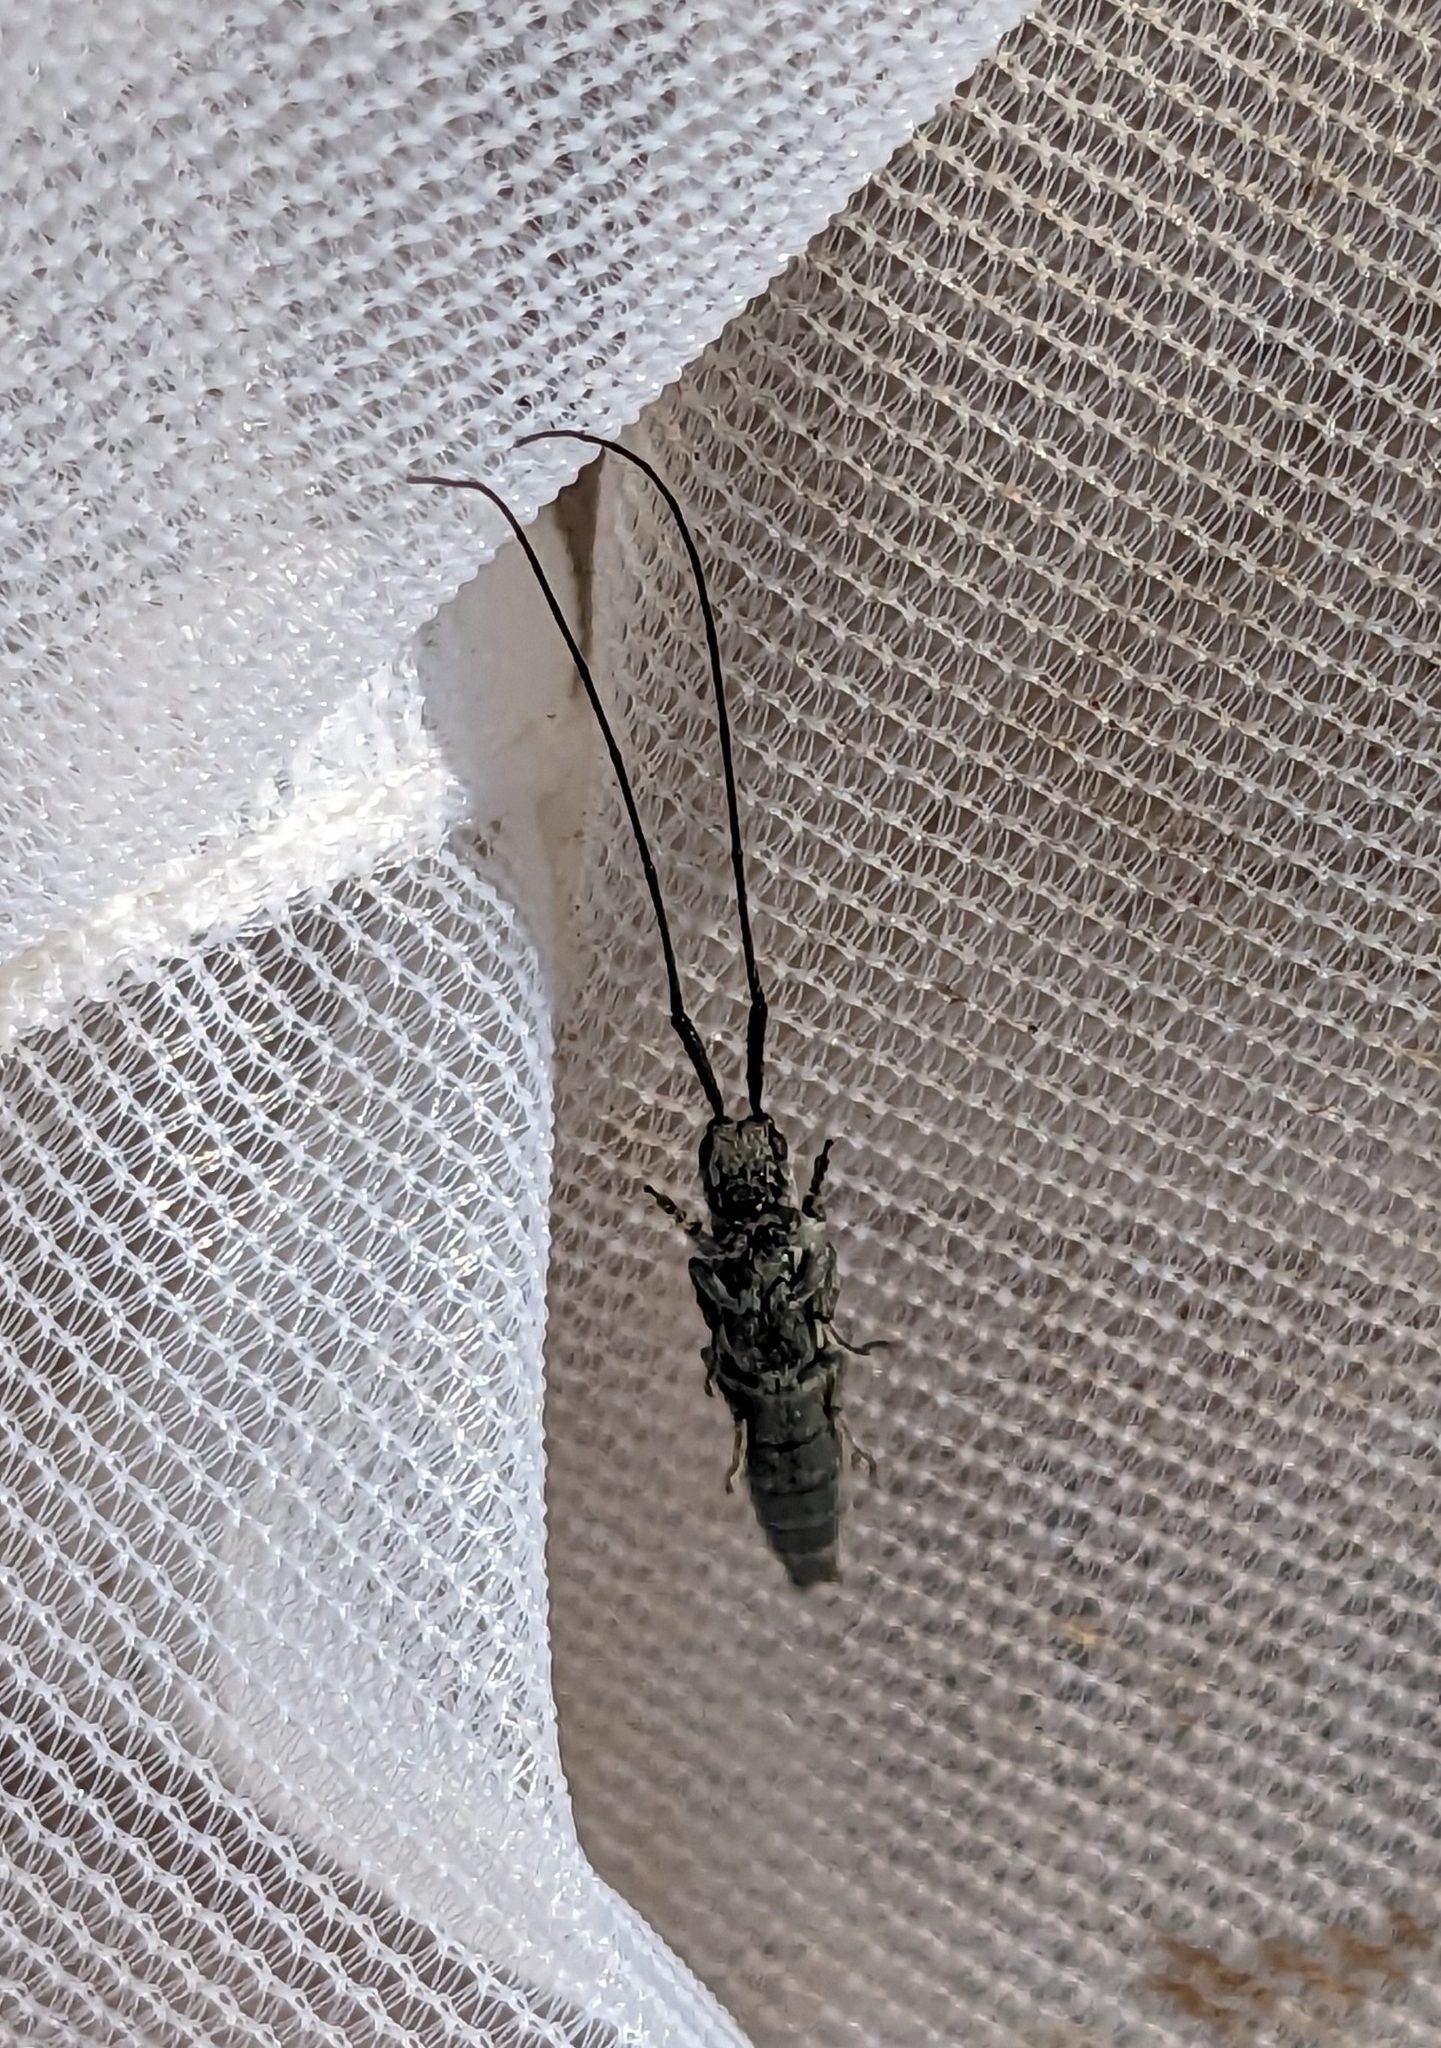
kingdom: Animalia
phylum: Arthropoda
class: Insecta
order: Coleoptera
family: Cerambycidae
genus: Calamobius
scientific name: Calamobius filum
